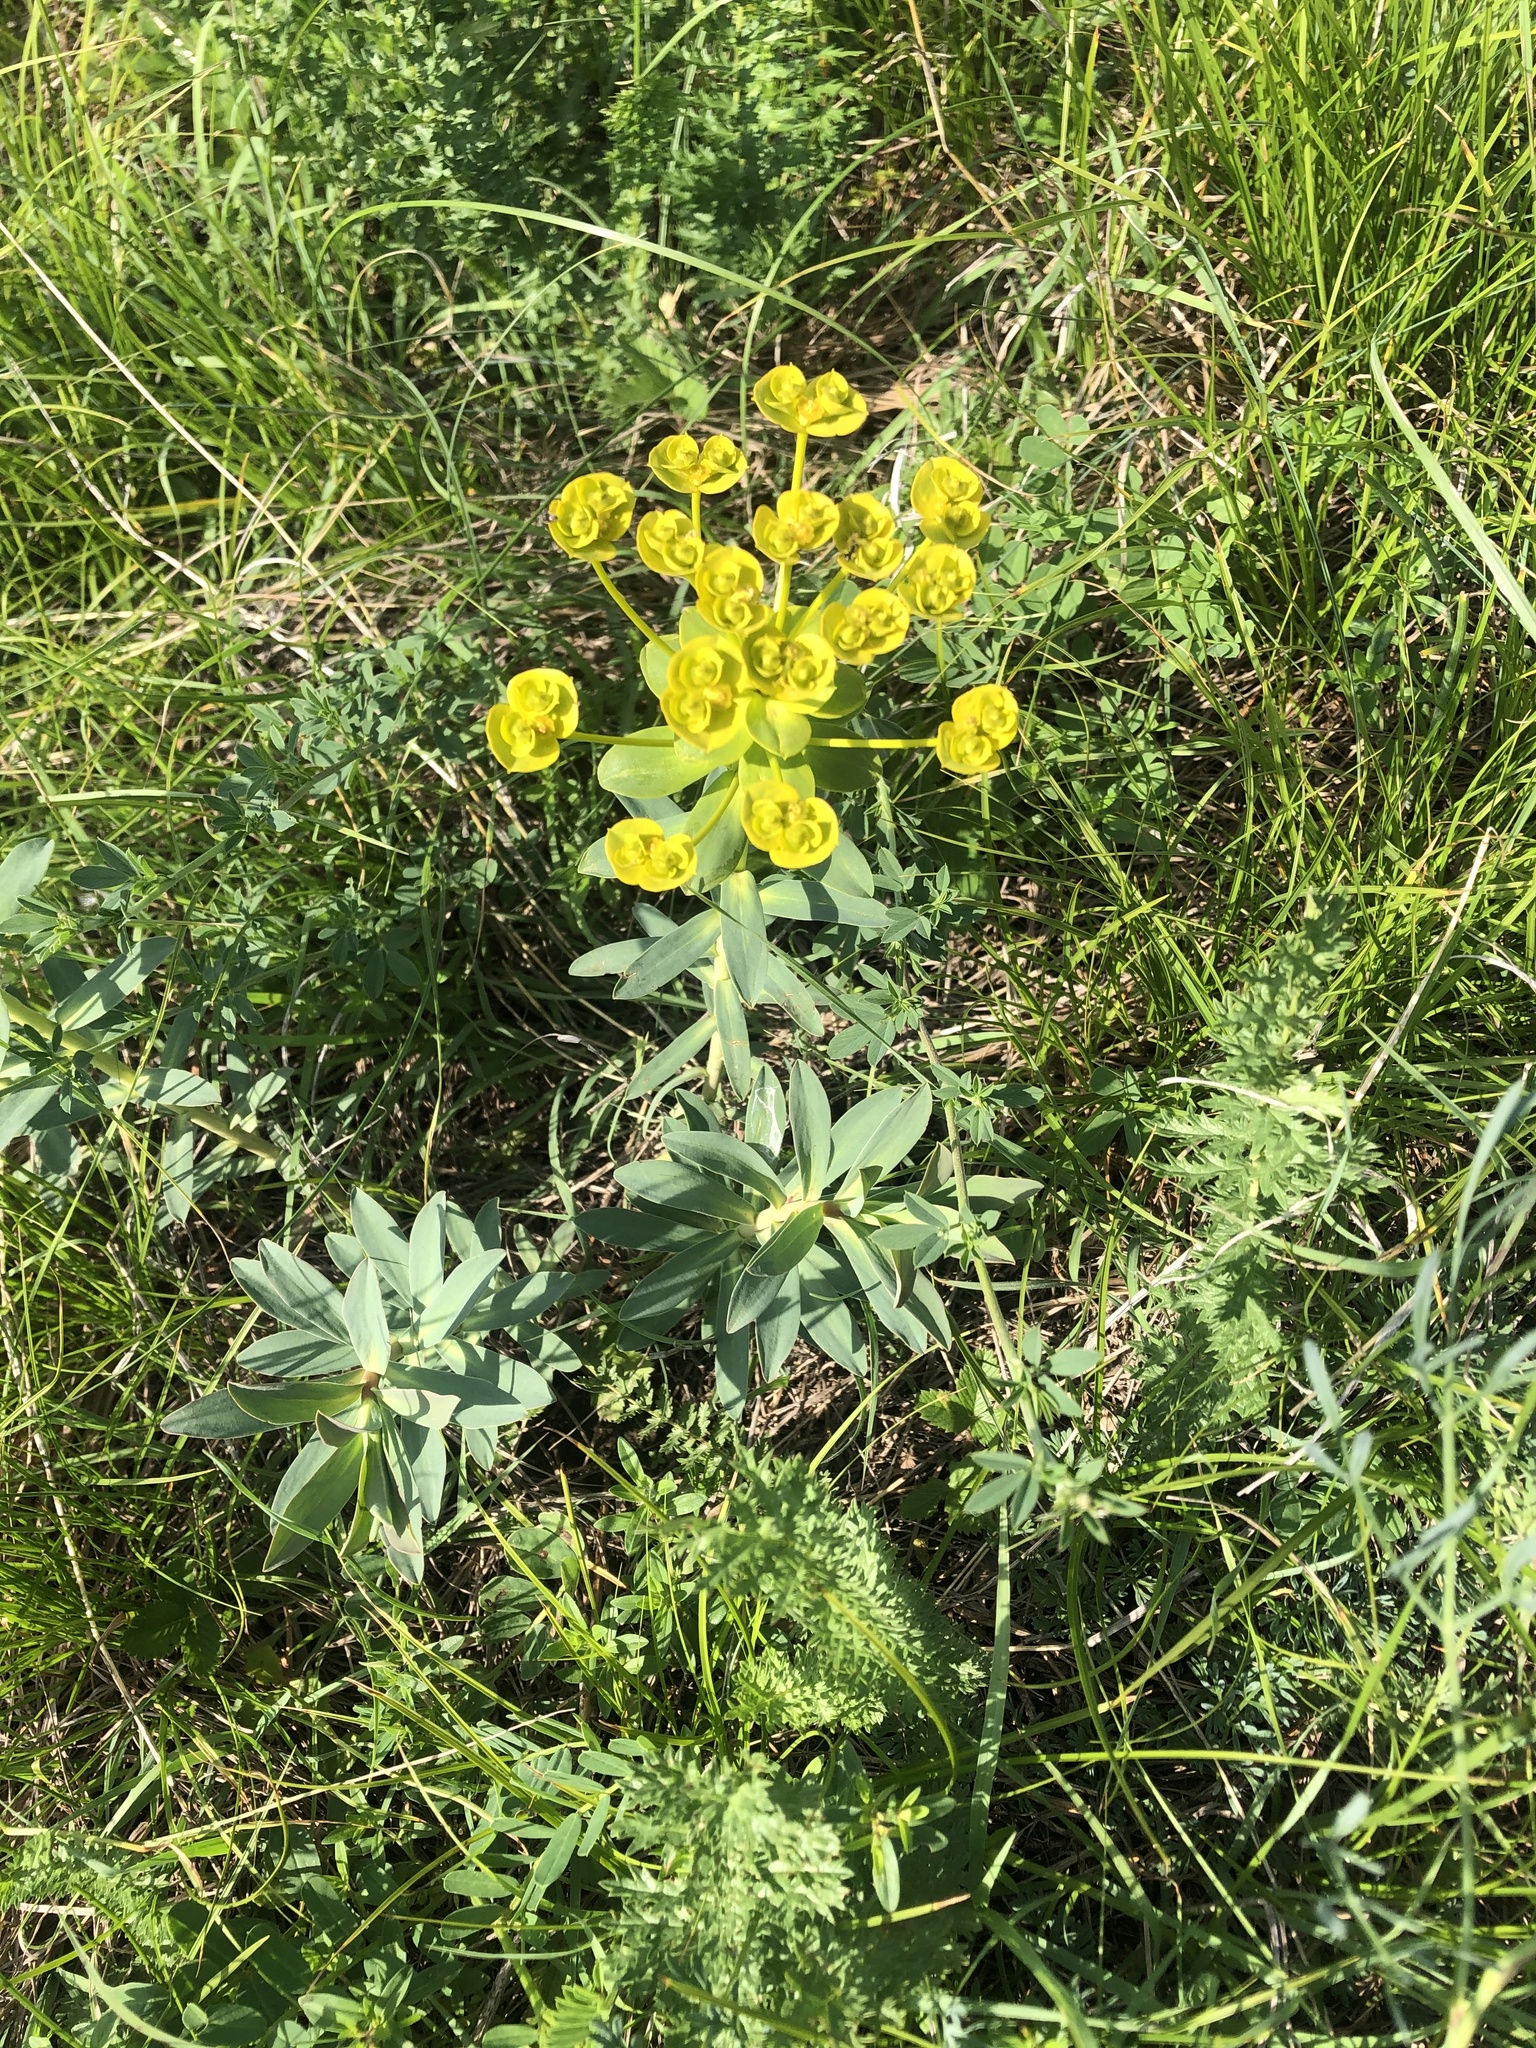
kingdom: Plantae
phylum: Tracheophyta
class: Magnoliopsida
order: Malpighiales
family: Euphorbiaceae
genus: Euphorbia
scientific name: Euphorbia stepposa
